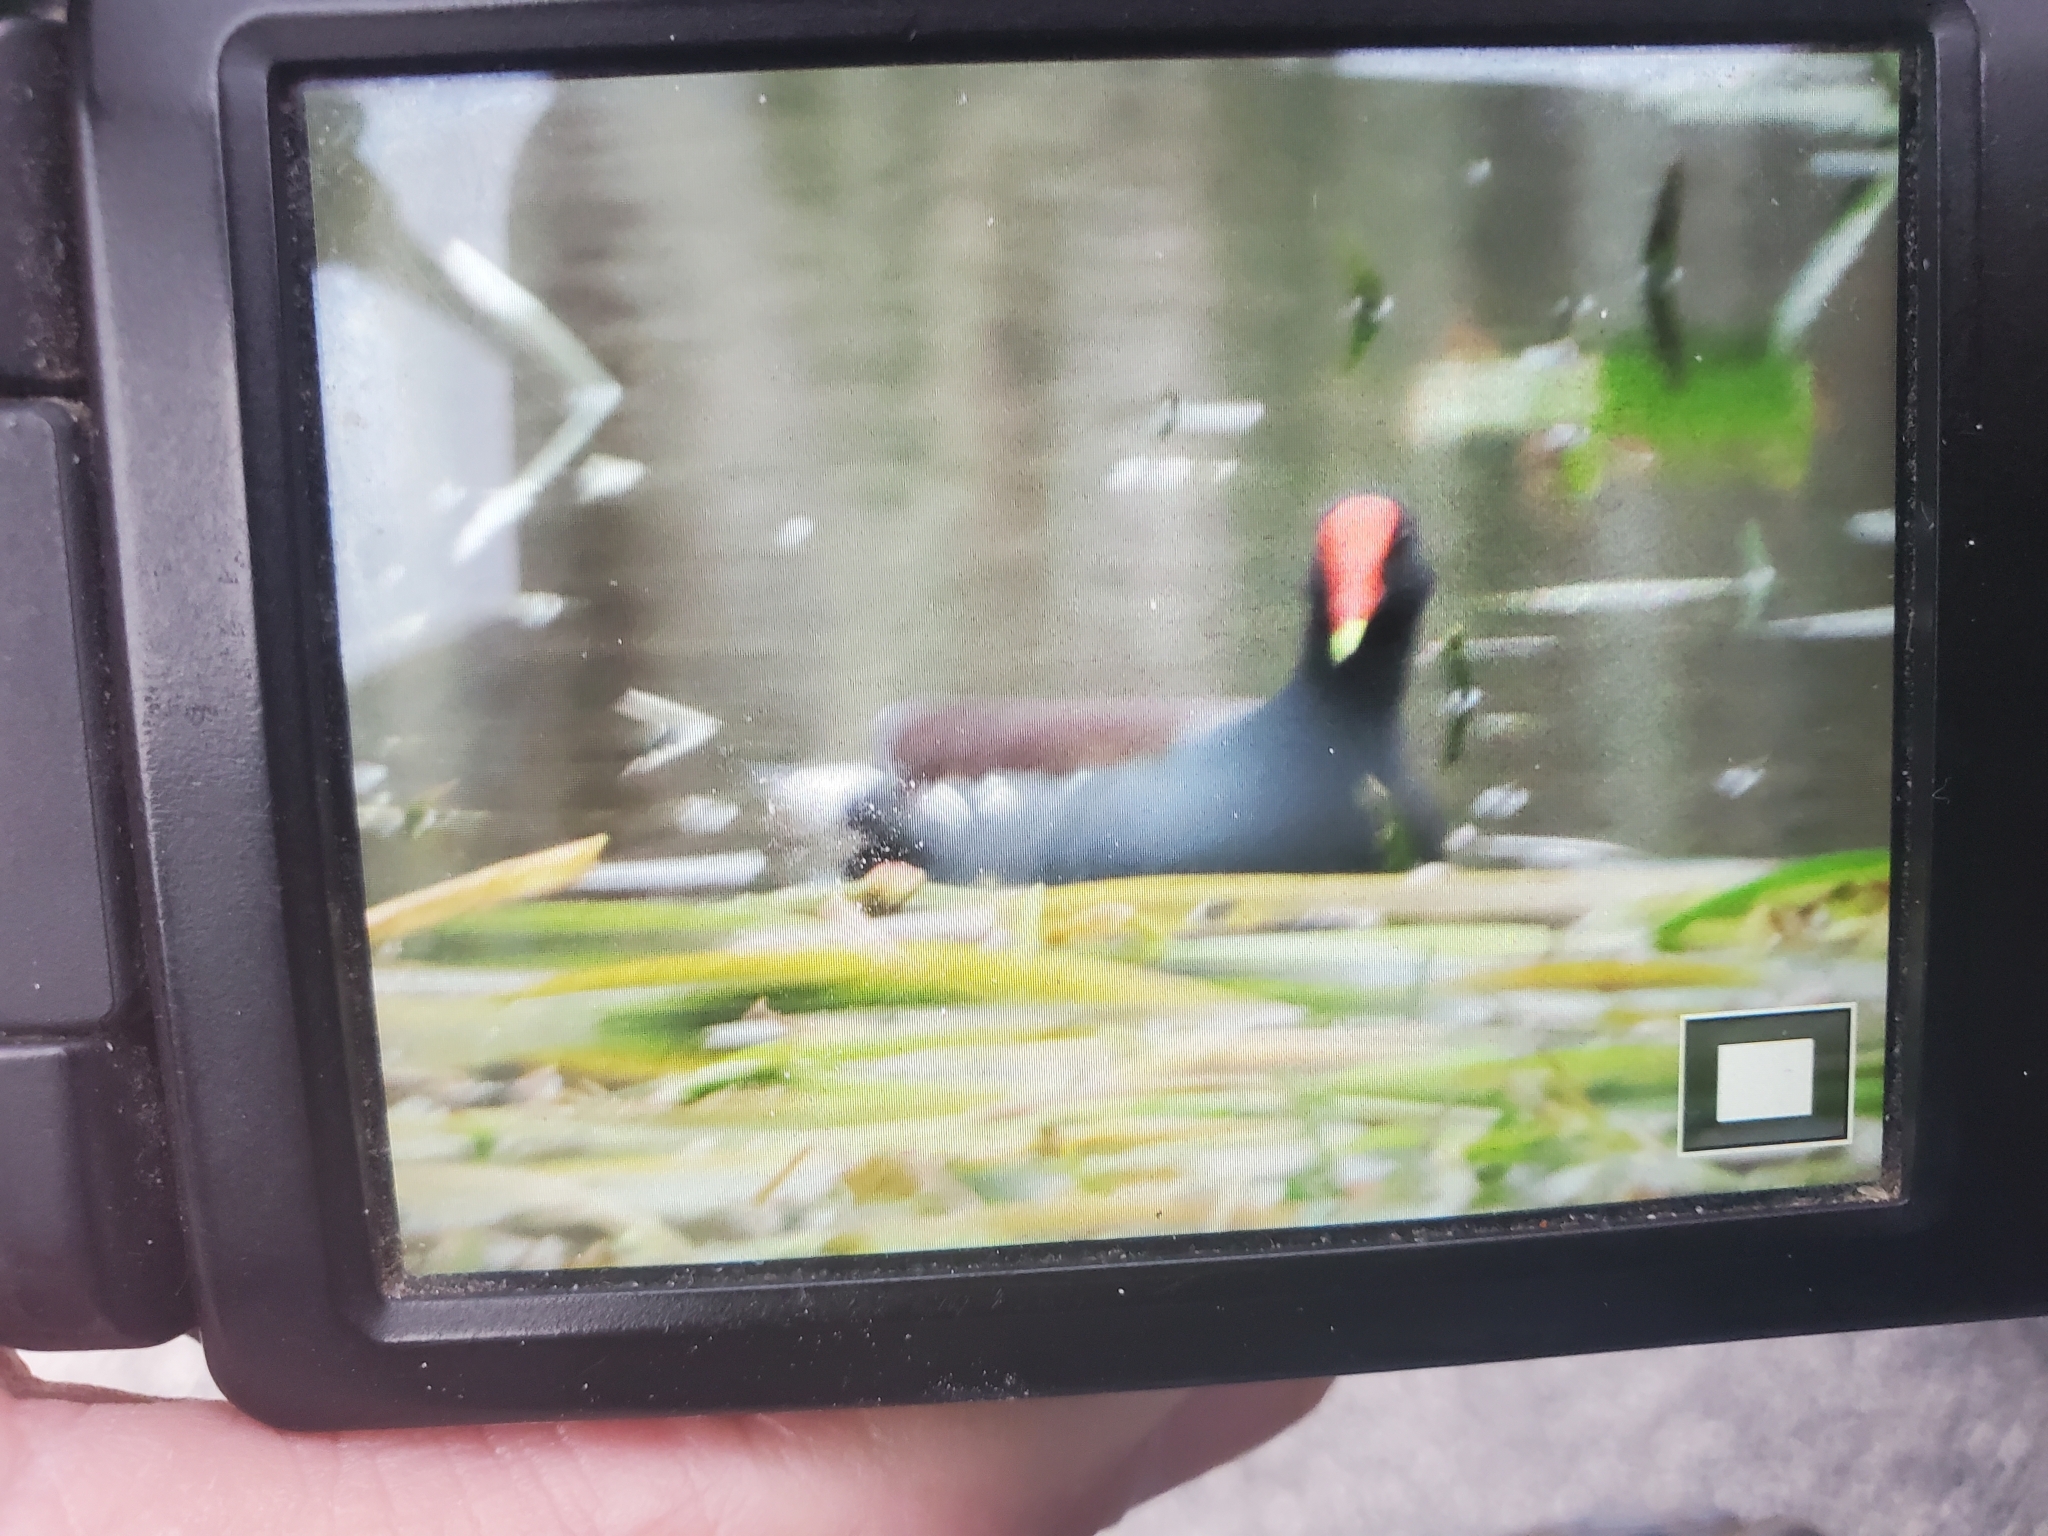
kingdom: Animalia
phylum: Chordata
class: Aves
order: Gruiformes
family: Rallidae
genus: Gallinula
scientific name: Gallinula chloropus
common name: Common moorhen
